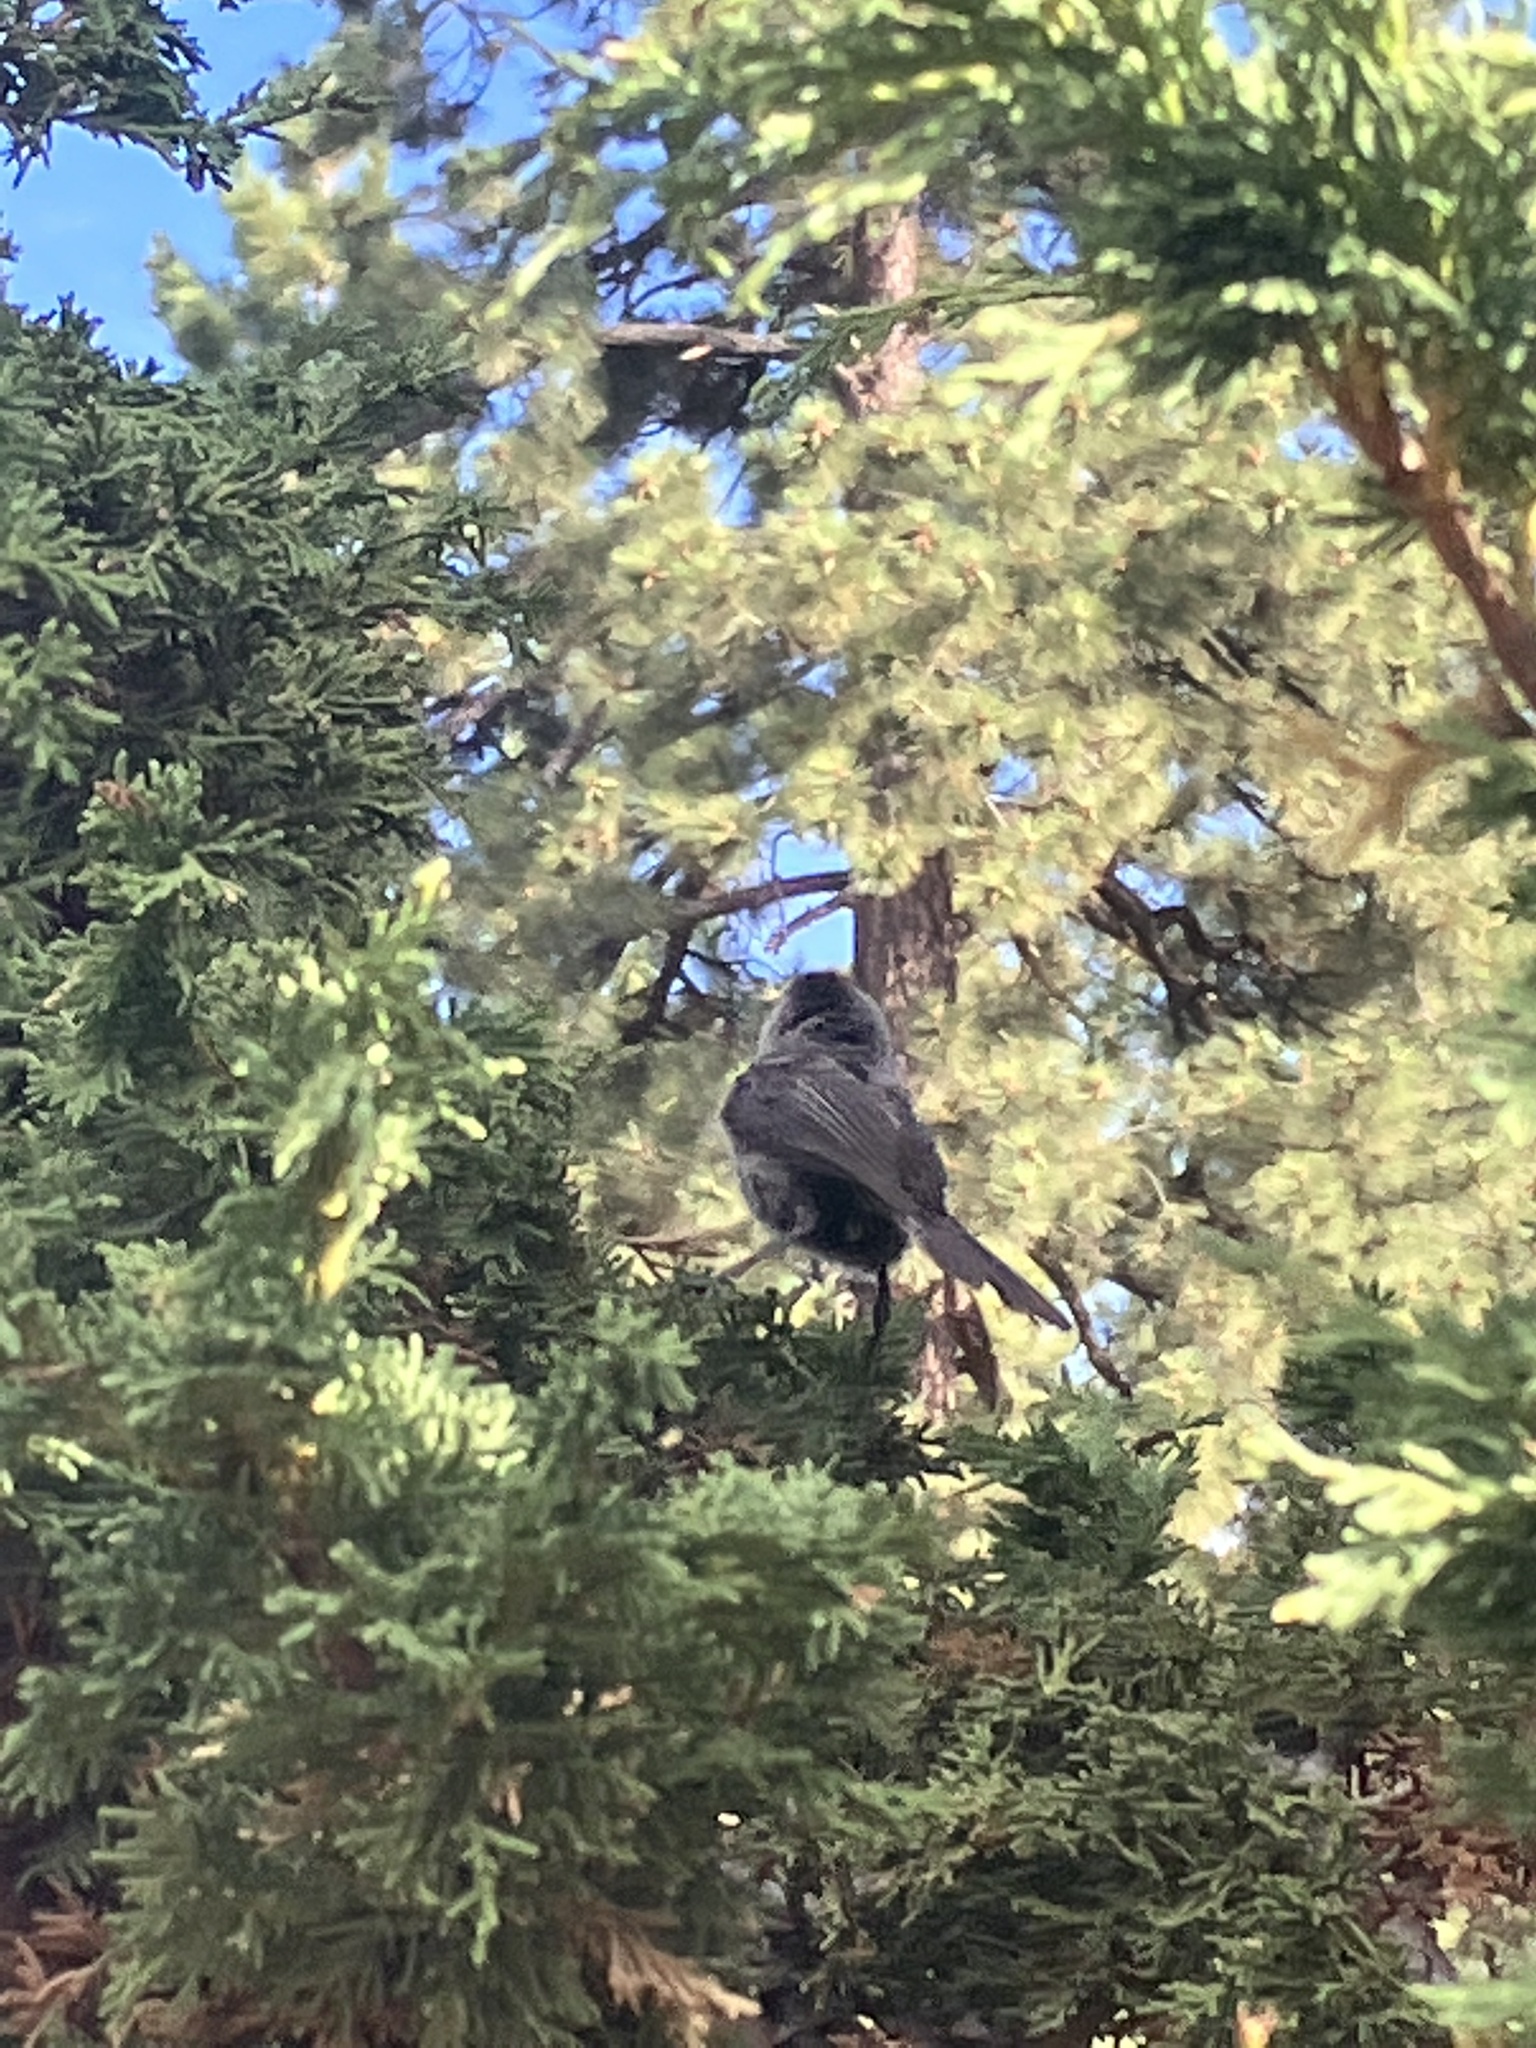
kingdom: Animalia
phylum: Chordata
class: Aves
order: Passeriformes
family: Paridae
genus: Poecile
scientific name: Poecile gambeli
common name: Mountain chickadee
